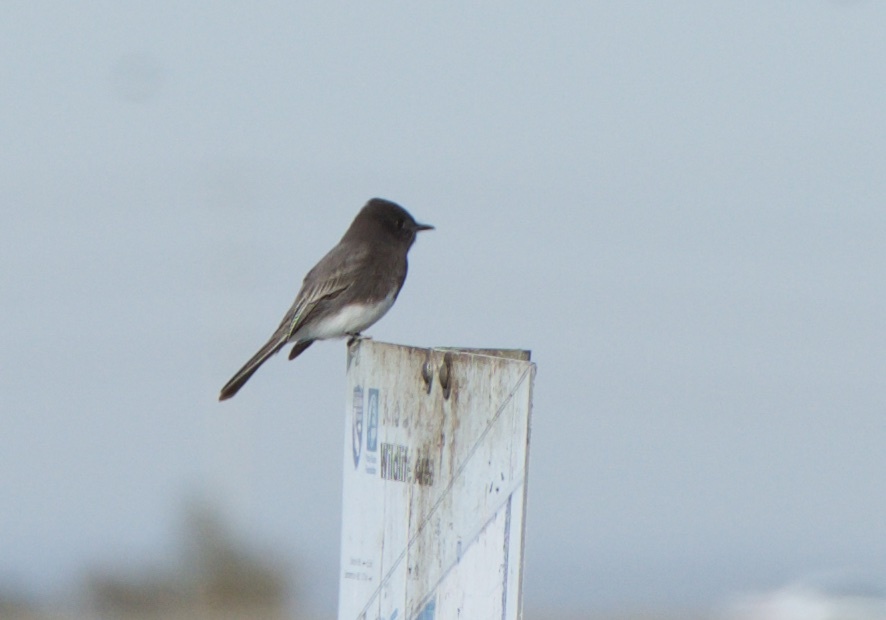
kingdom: Animalia
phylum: Chordata
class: Aves
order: Passeriformes
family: Tyrannidae
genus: Sayornis
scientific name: Sayornis nigricans
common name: Black phoebe
